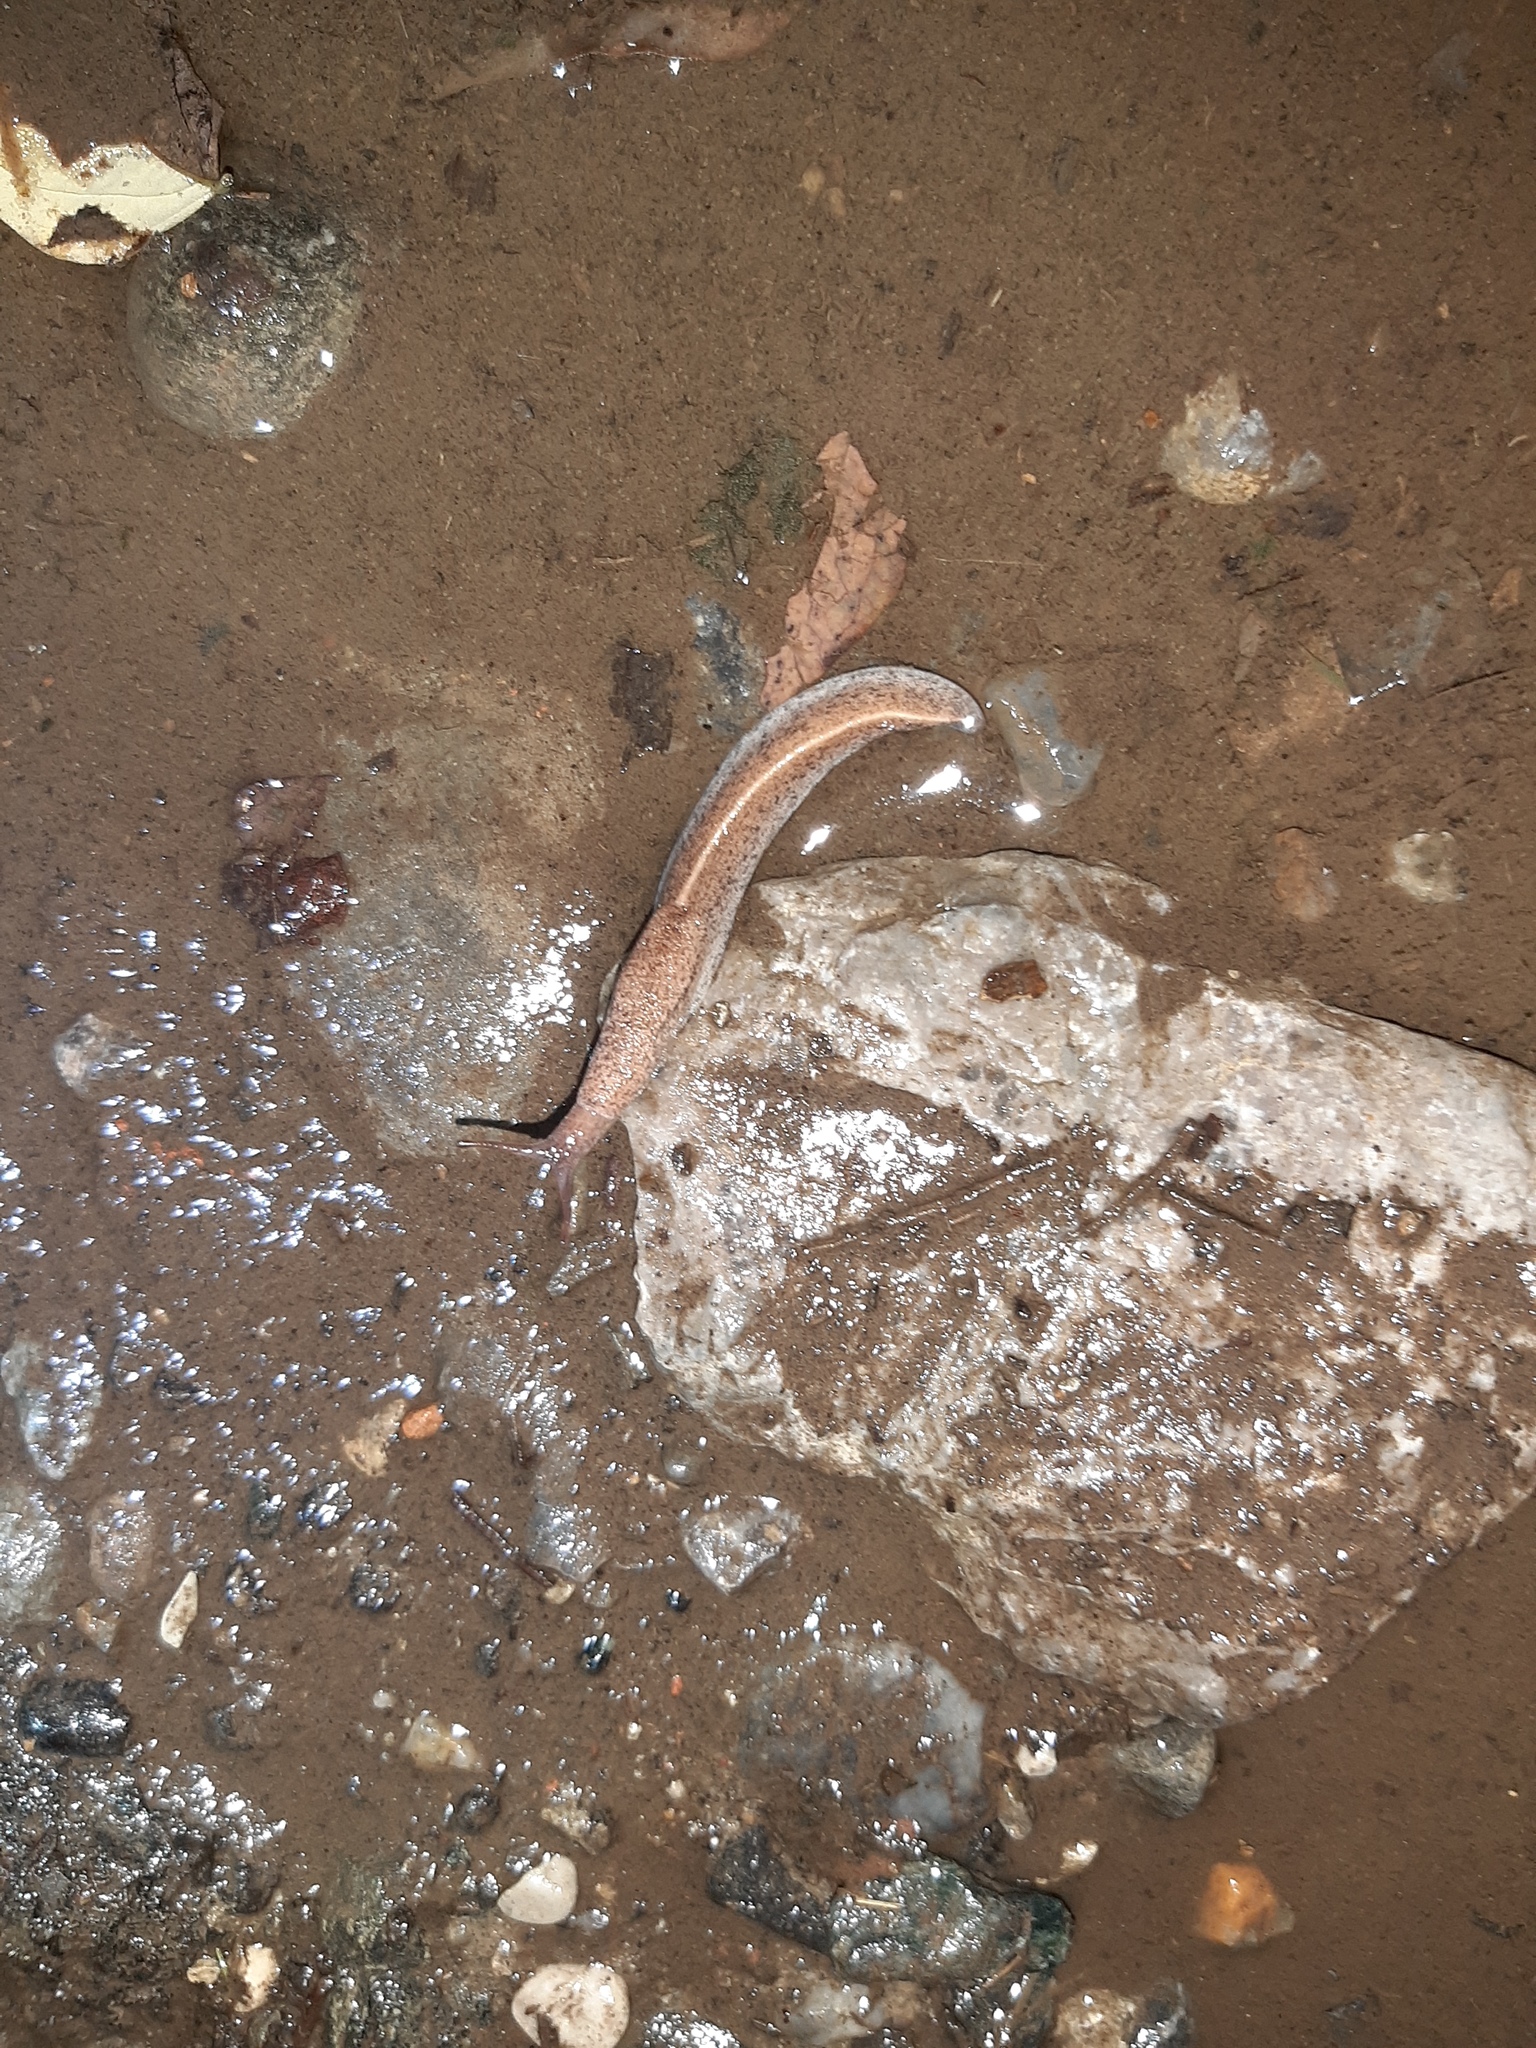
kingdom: Animalia
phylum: Mollusca
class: Gastropoda
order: Stylommatophora
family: Milacidae
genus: Tandonia
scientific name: Tandonia rustica
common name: Bulb-eating slug
